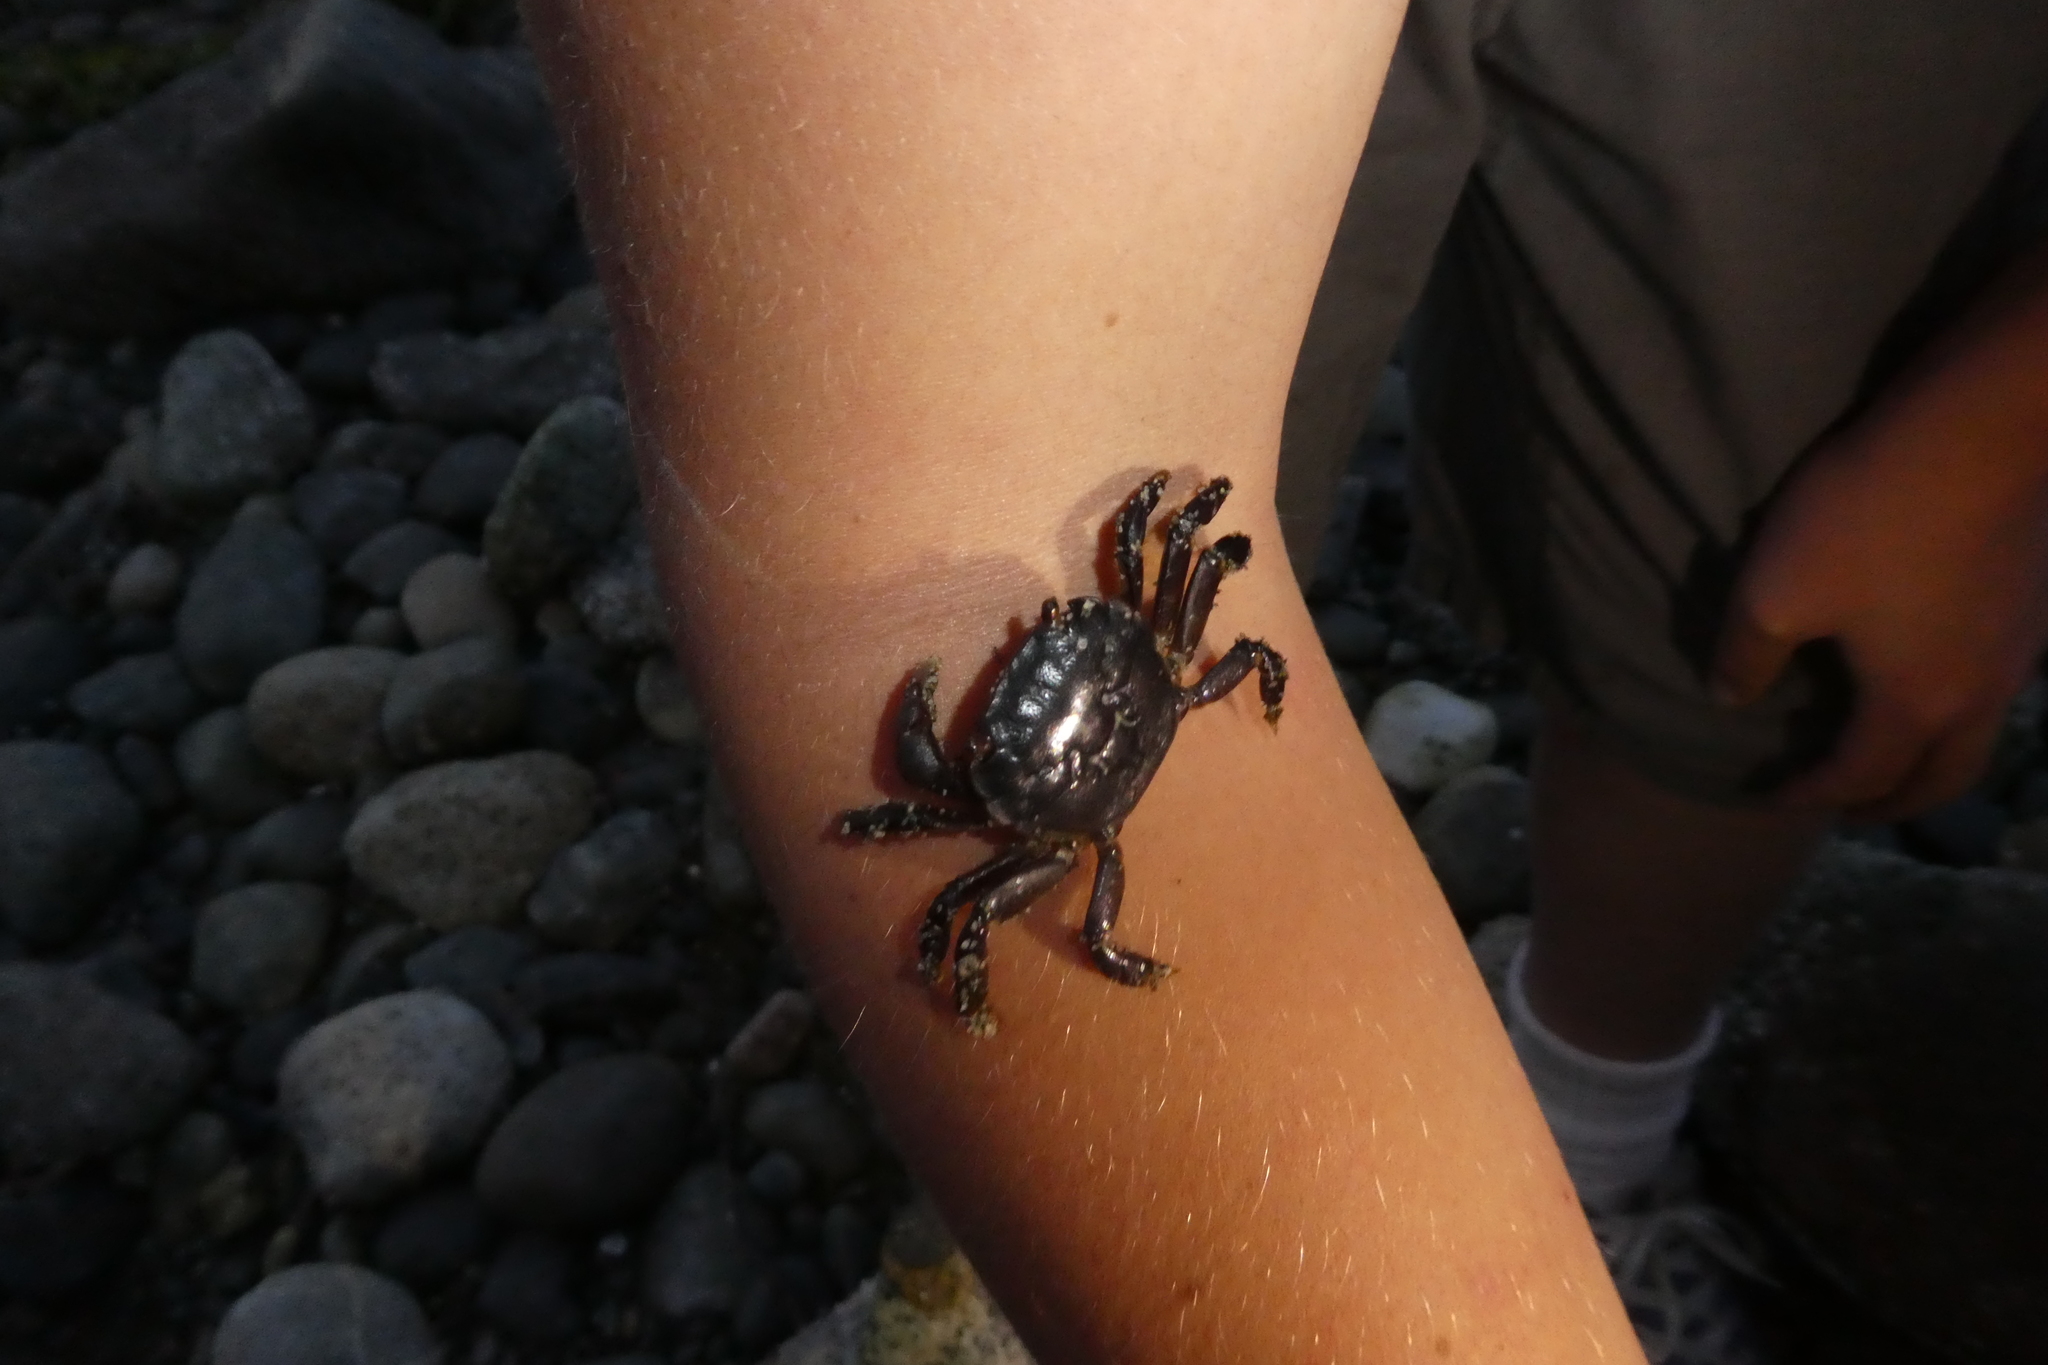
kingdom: Animalia
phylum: Arthropoda
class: Malacostraca
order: Decapoda
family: Varunidae
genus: Hemigrapsus
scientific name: Hemigrapsus nudus
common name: Purple shore crab
